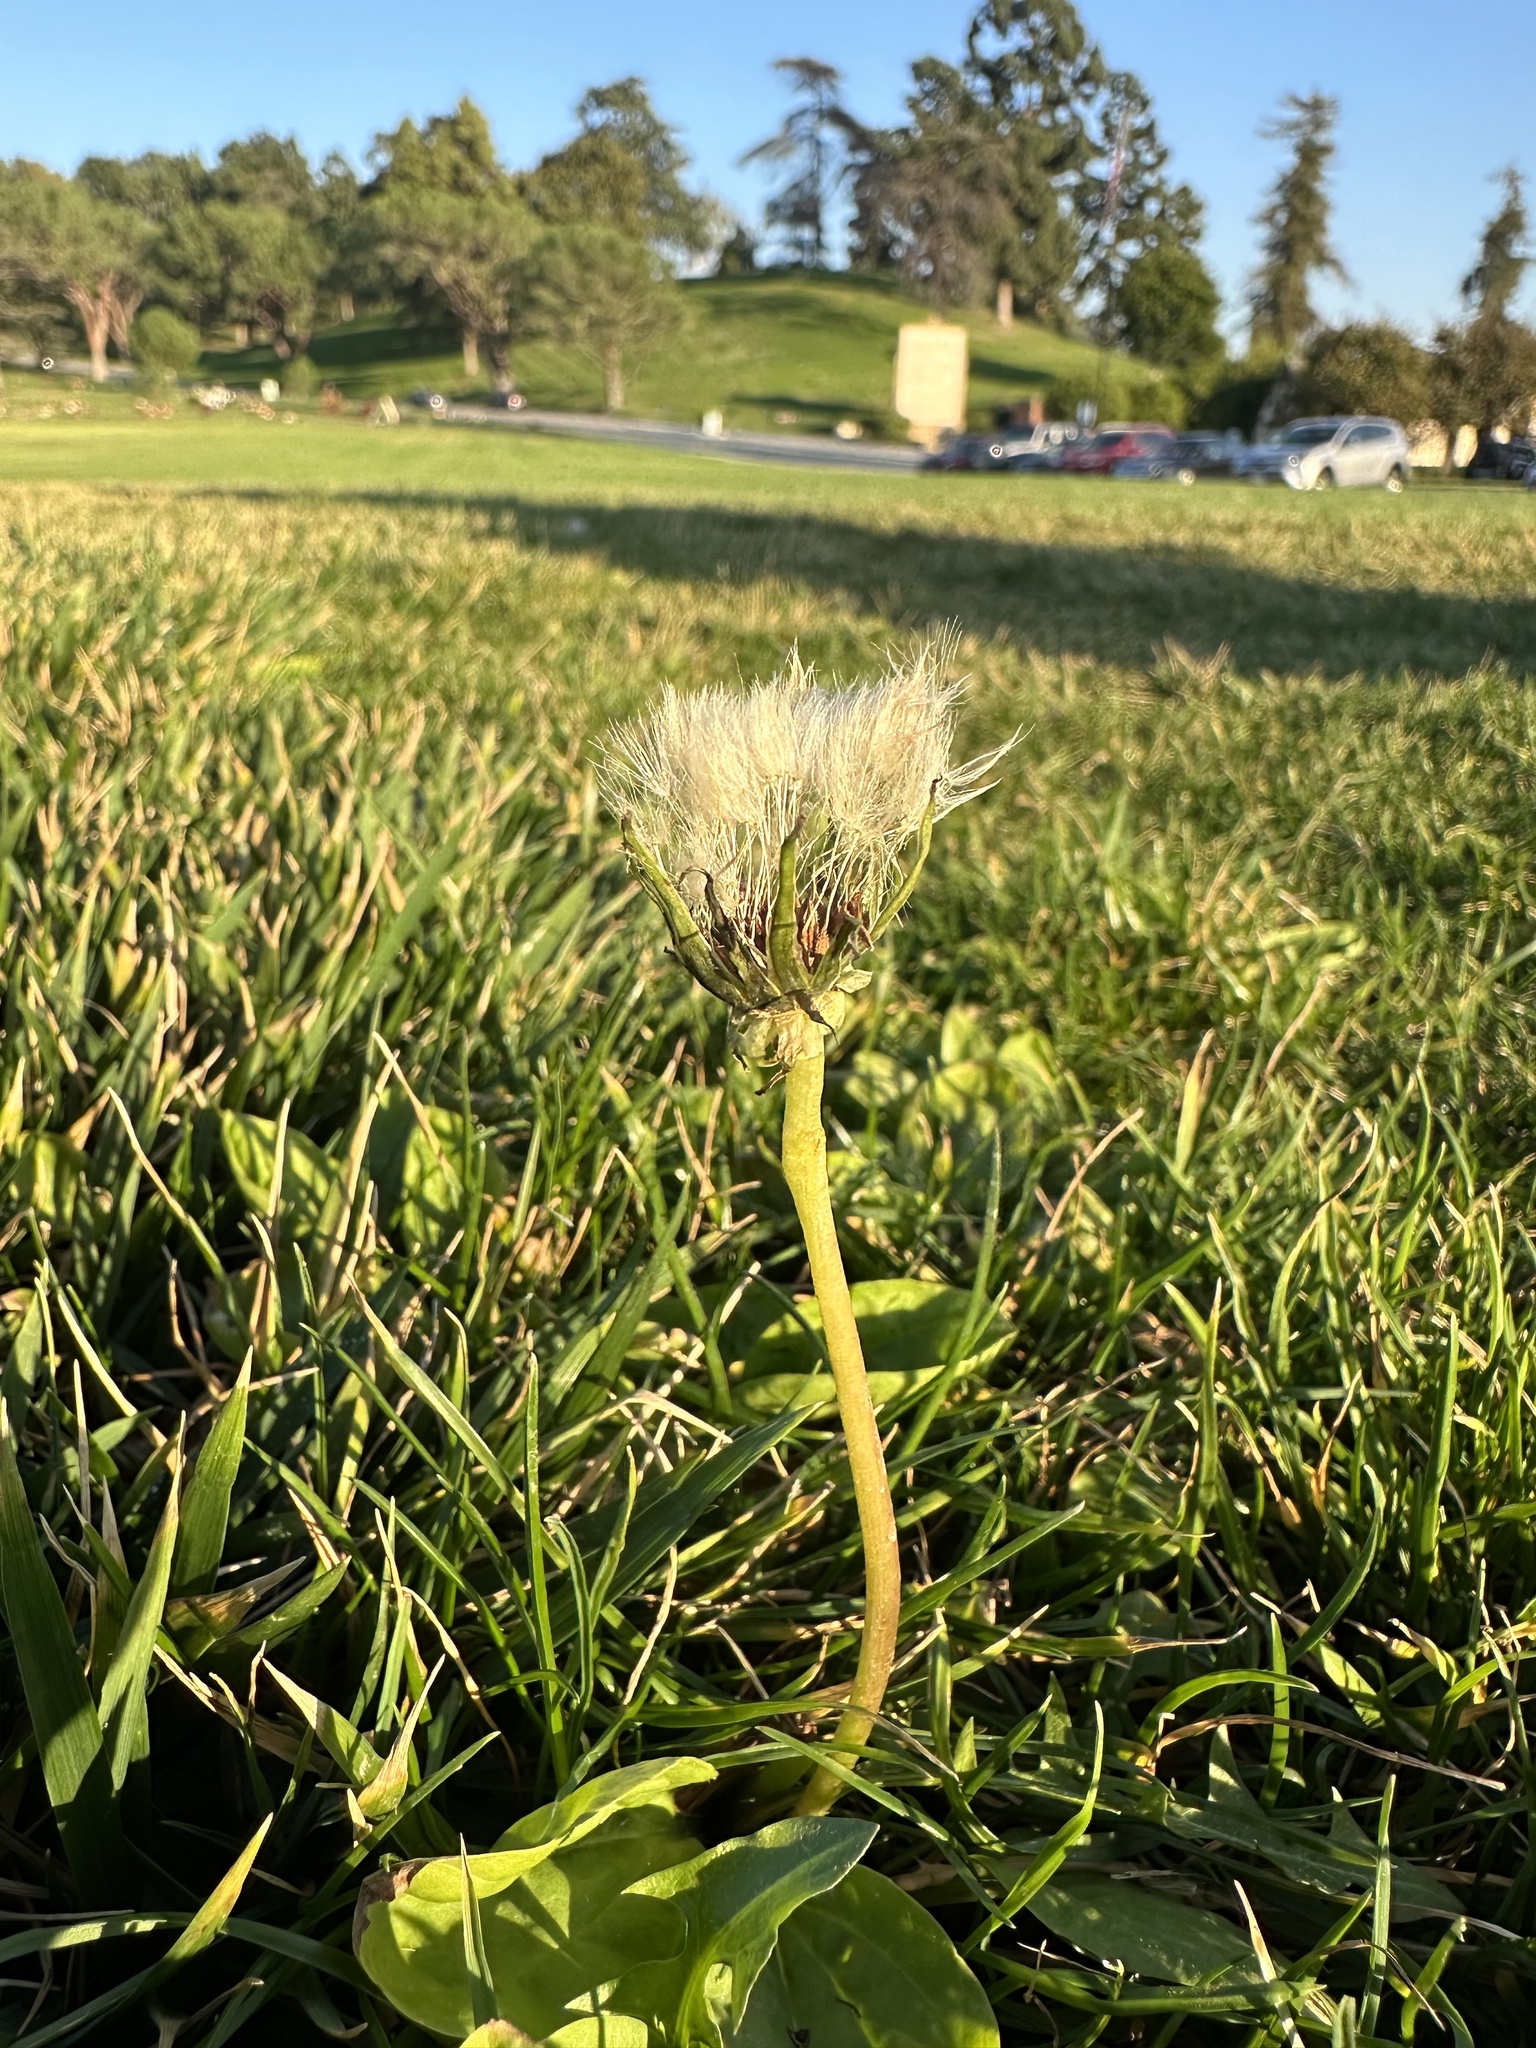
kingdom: Plantae
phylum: Tracheophyta
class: Magnoliopsida
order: Asterales
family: Asteraceae
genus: Taraxacum
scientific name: Taraxacum
